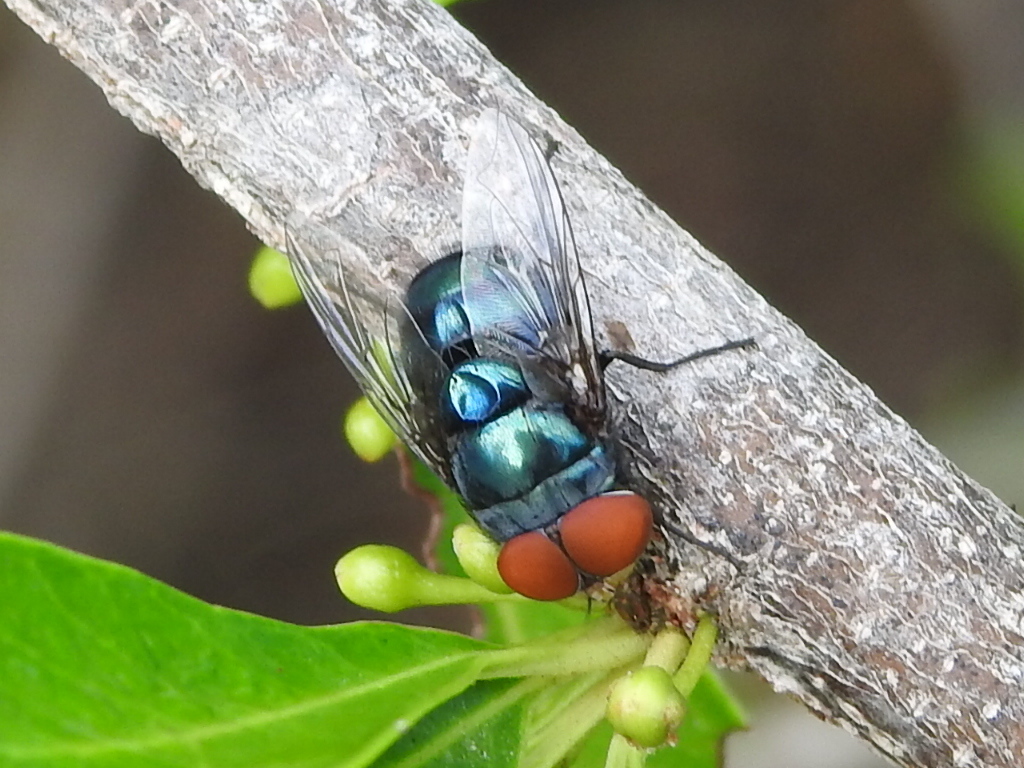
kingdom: Animalia
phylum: Arthropoda
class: Insecta
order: Diptera
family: Calliphoridae
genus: Chrysomya
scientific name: Chrysomya megacephala
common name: Blow fly
